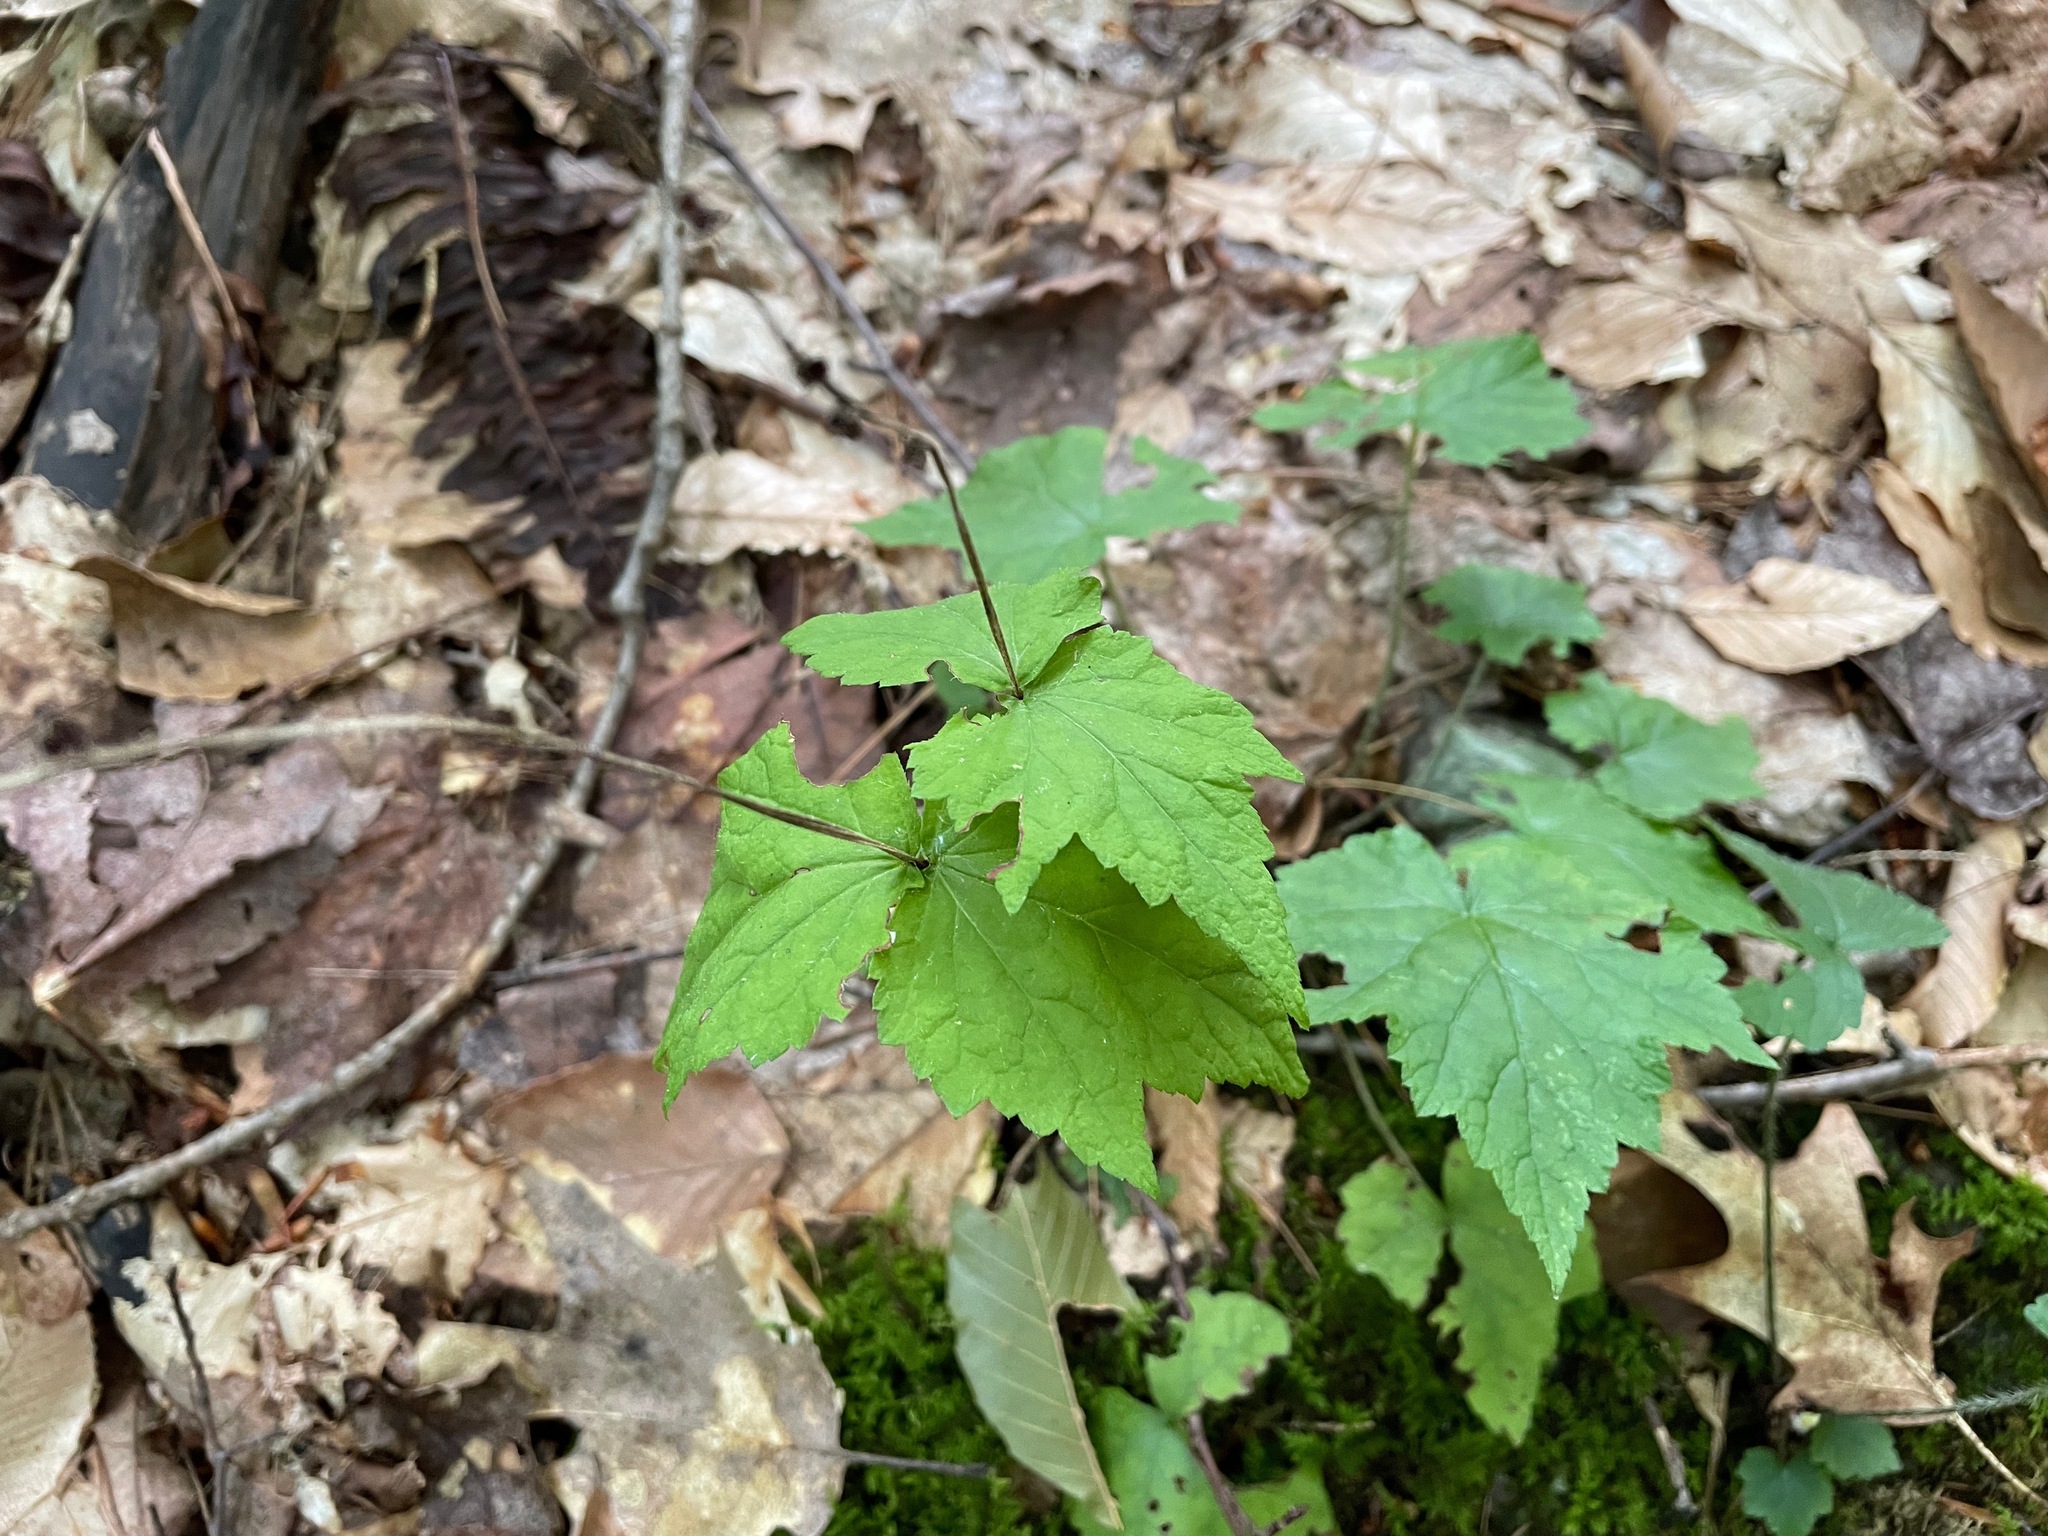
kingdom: Plantae
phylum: Tracheophyta
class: Magnoliopsida
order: Saxifragales
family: Saxifragaceae
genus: Mitella
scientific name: Mitella diphylla
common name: Coolwort
